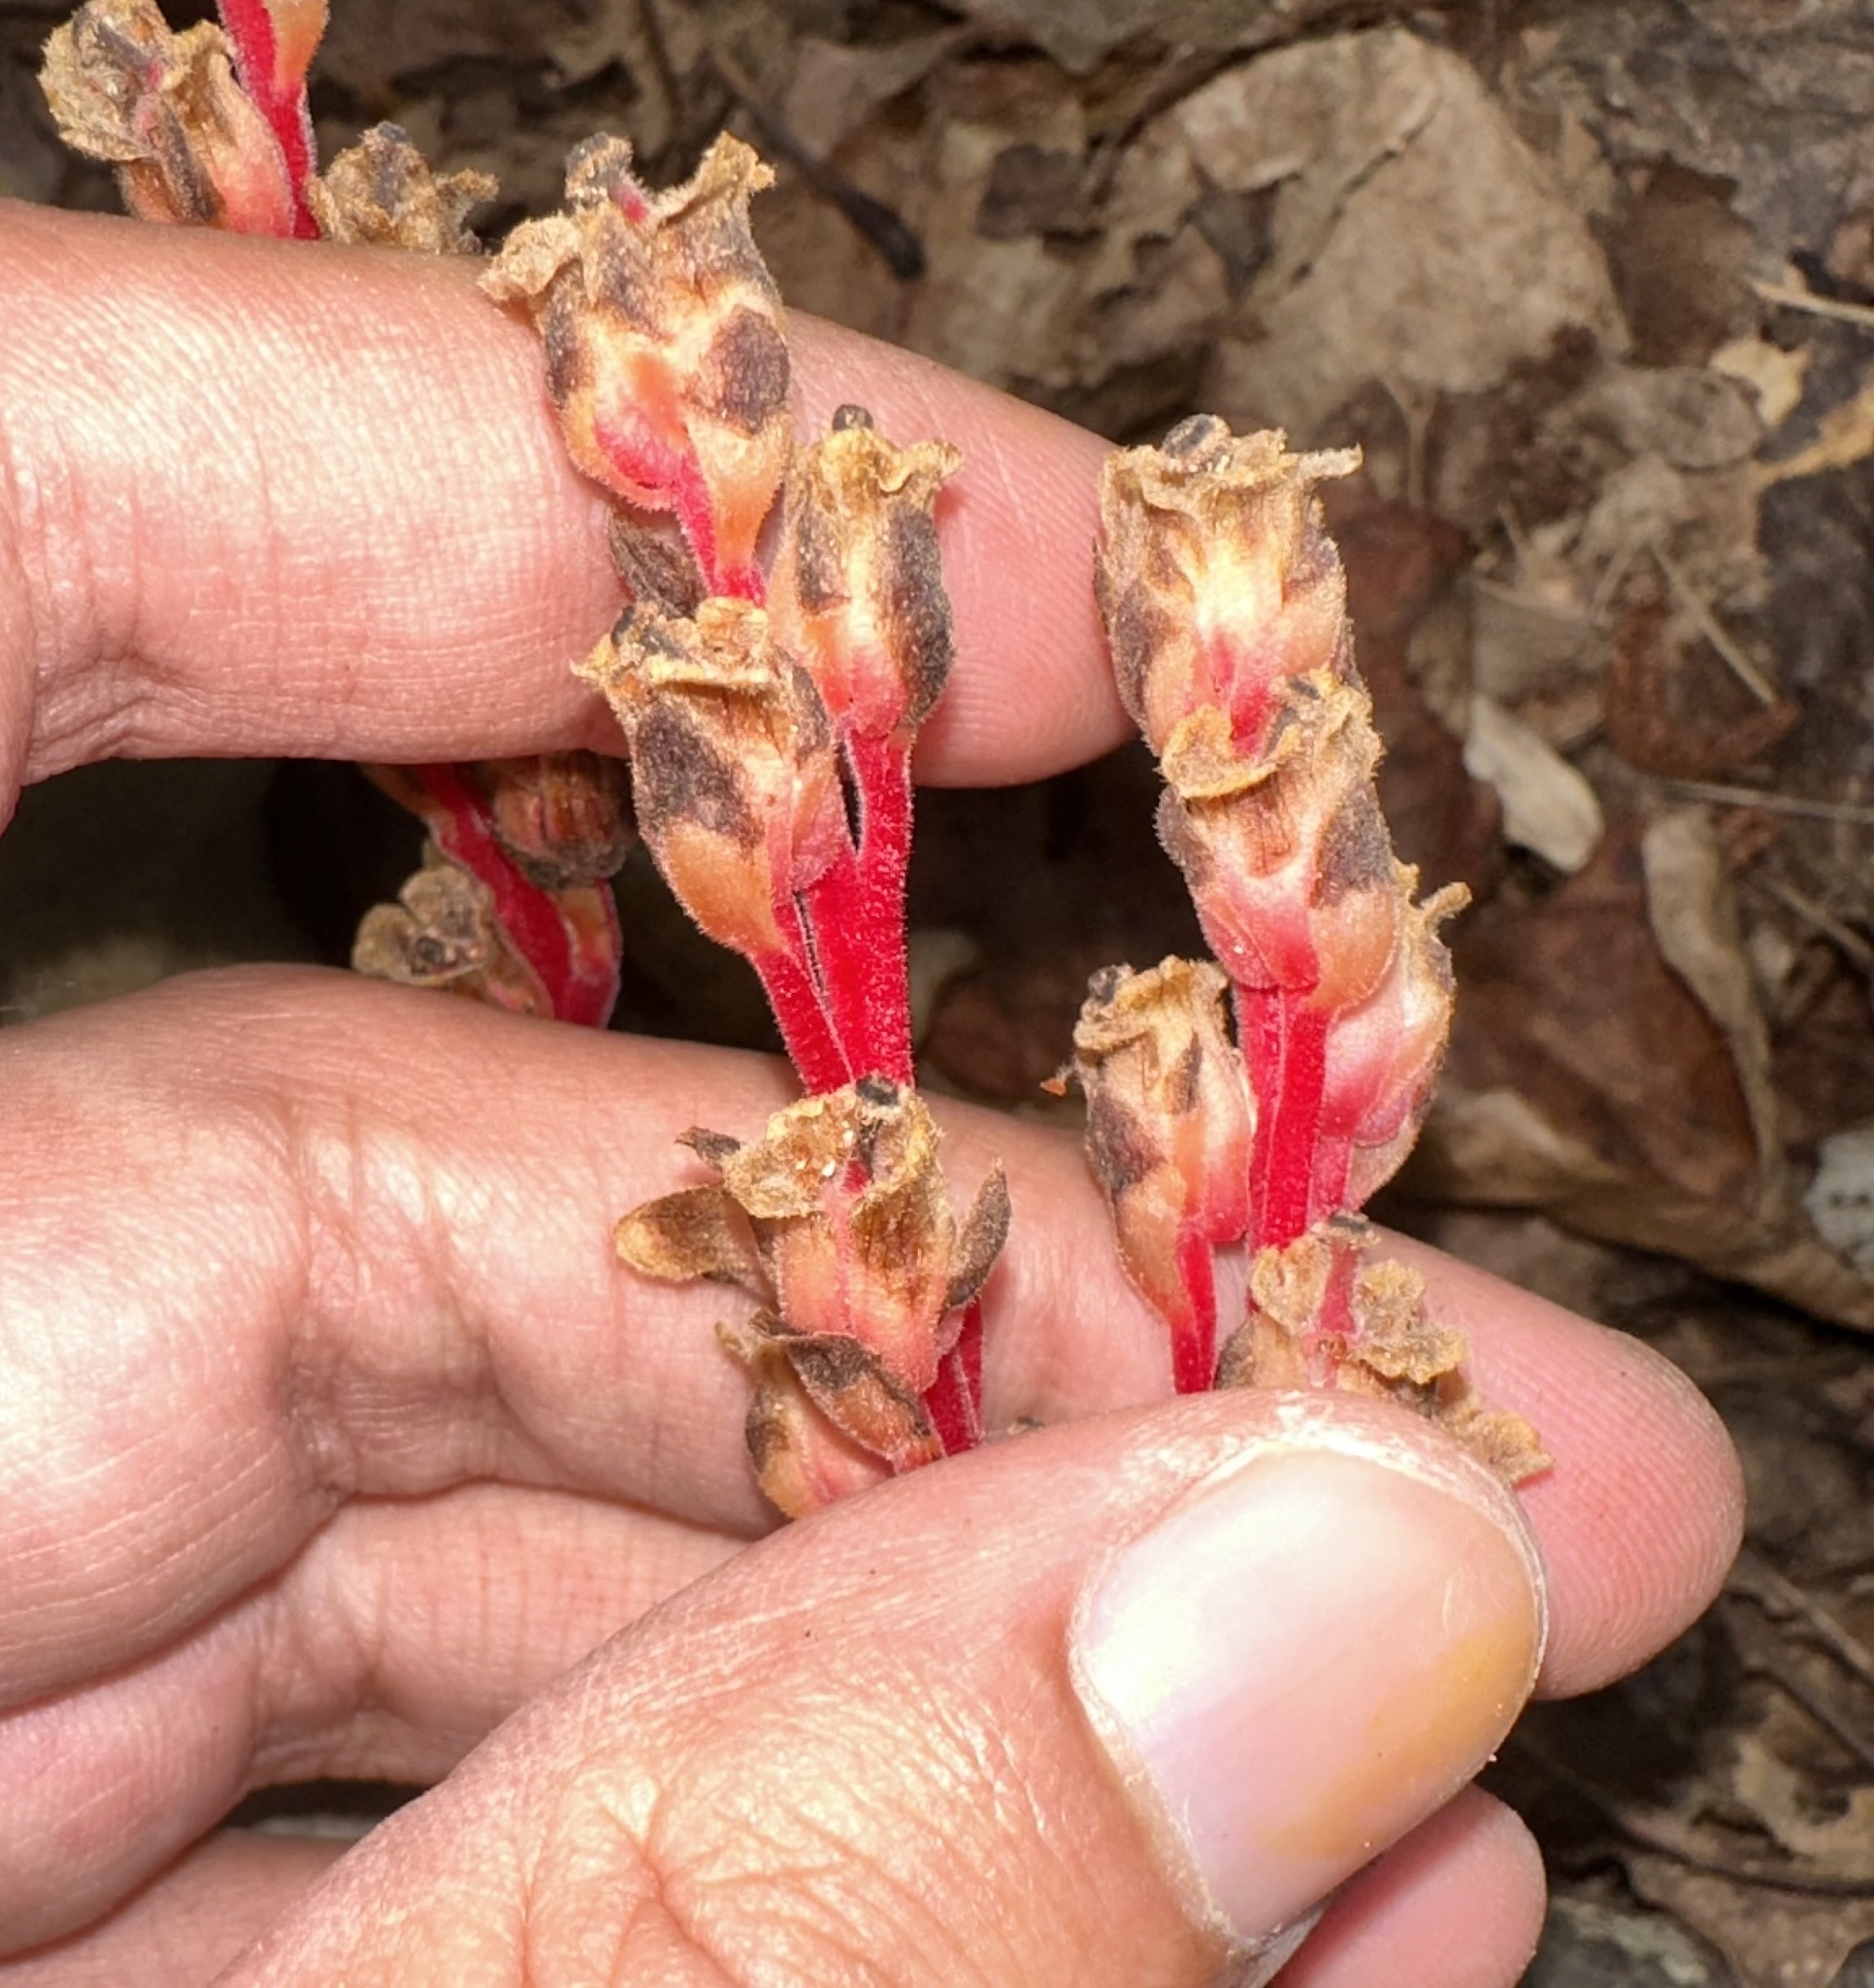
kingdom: Plantae
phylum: Tracheophyta
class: Magnoliopsida
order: Ericales
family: Ericaceae
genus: Hypopitys
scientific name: Hypopitys monotropa
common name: Yellow bird's-nest
